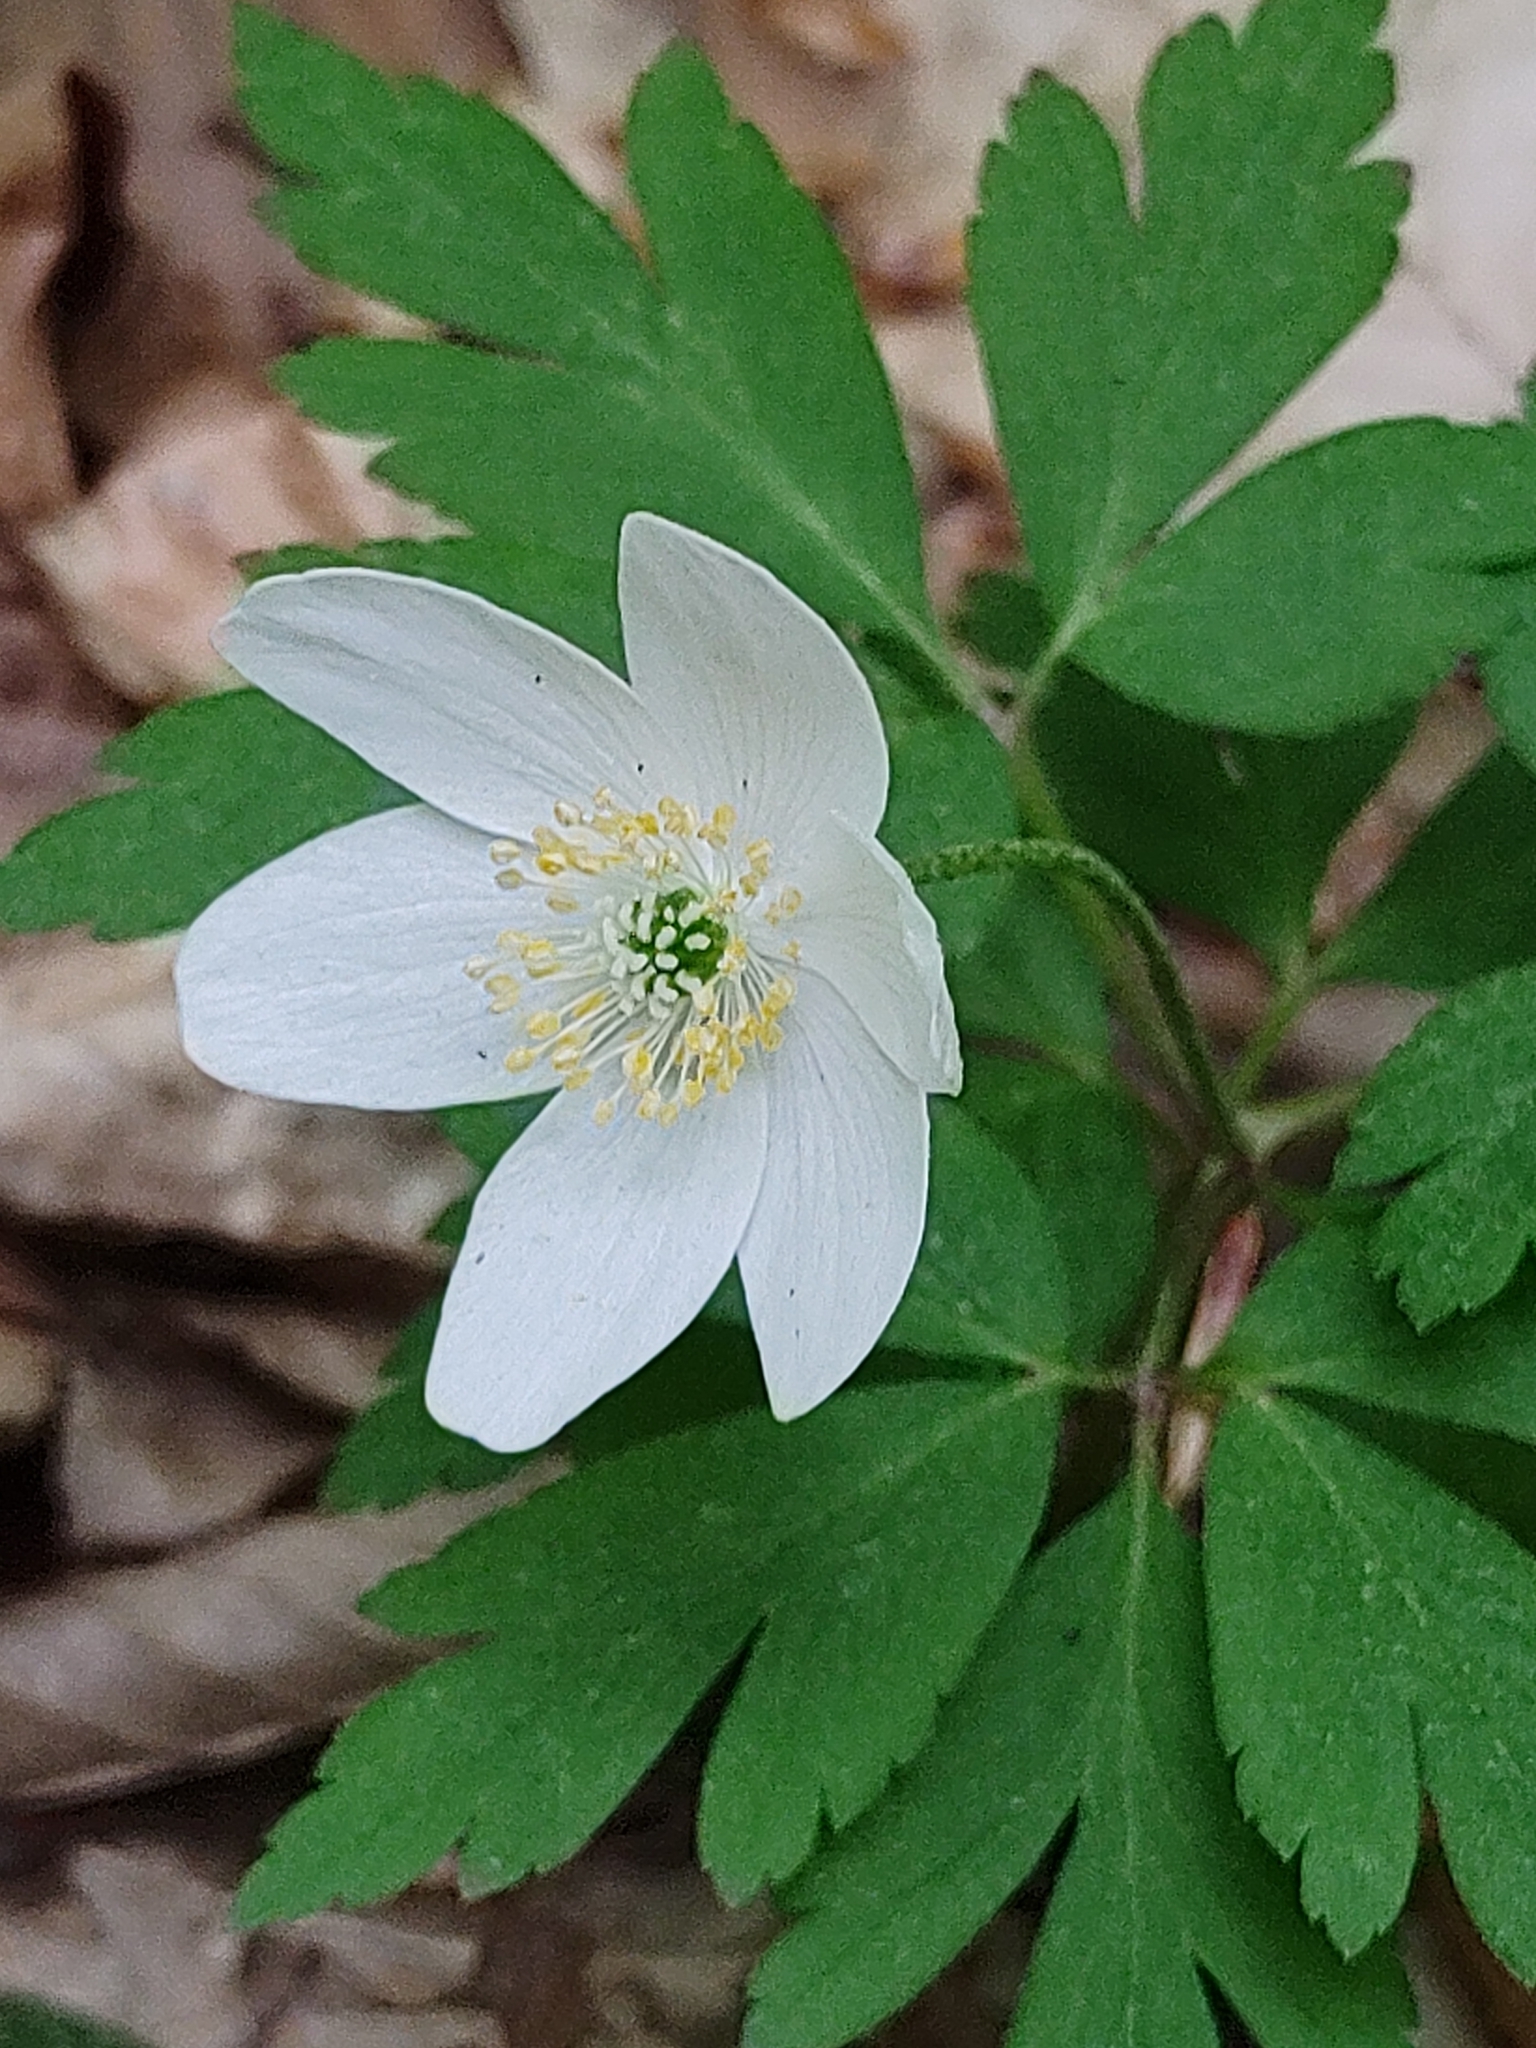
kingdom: Plantae
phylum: Tracheophyta
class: Magnoliopsida
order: Ranunculales
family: Ranunculaceae
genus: Anemone
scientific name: Anemone nemorosa
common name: Wood anemone
